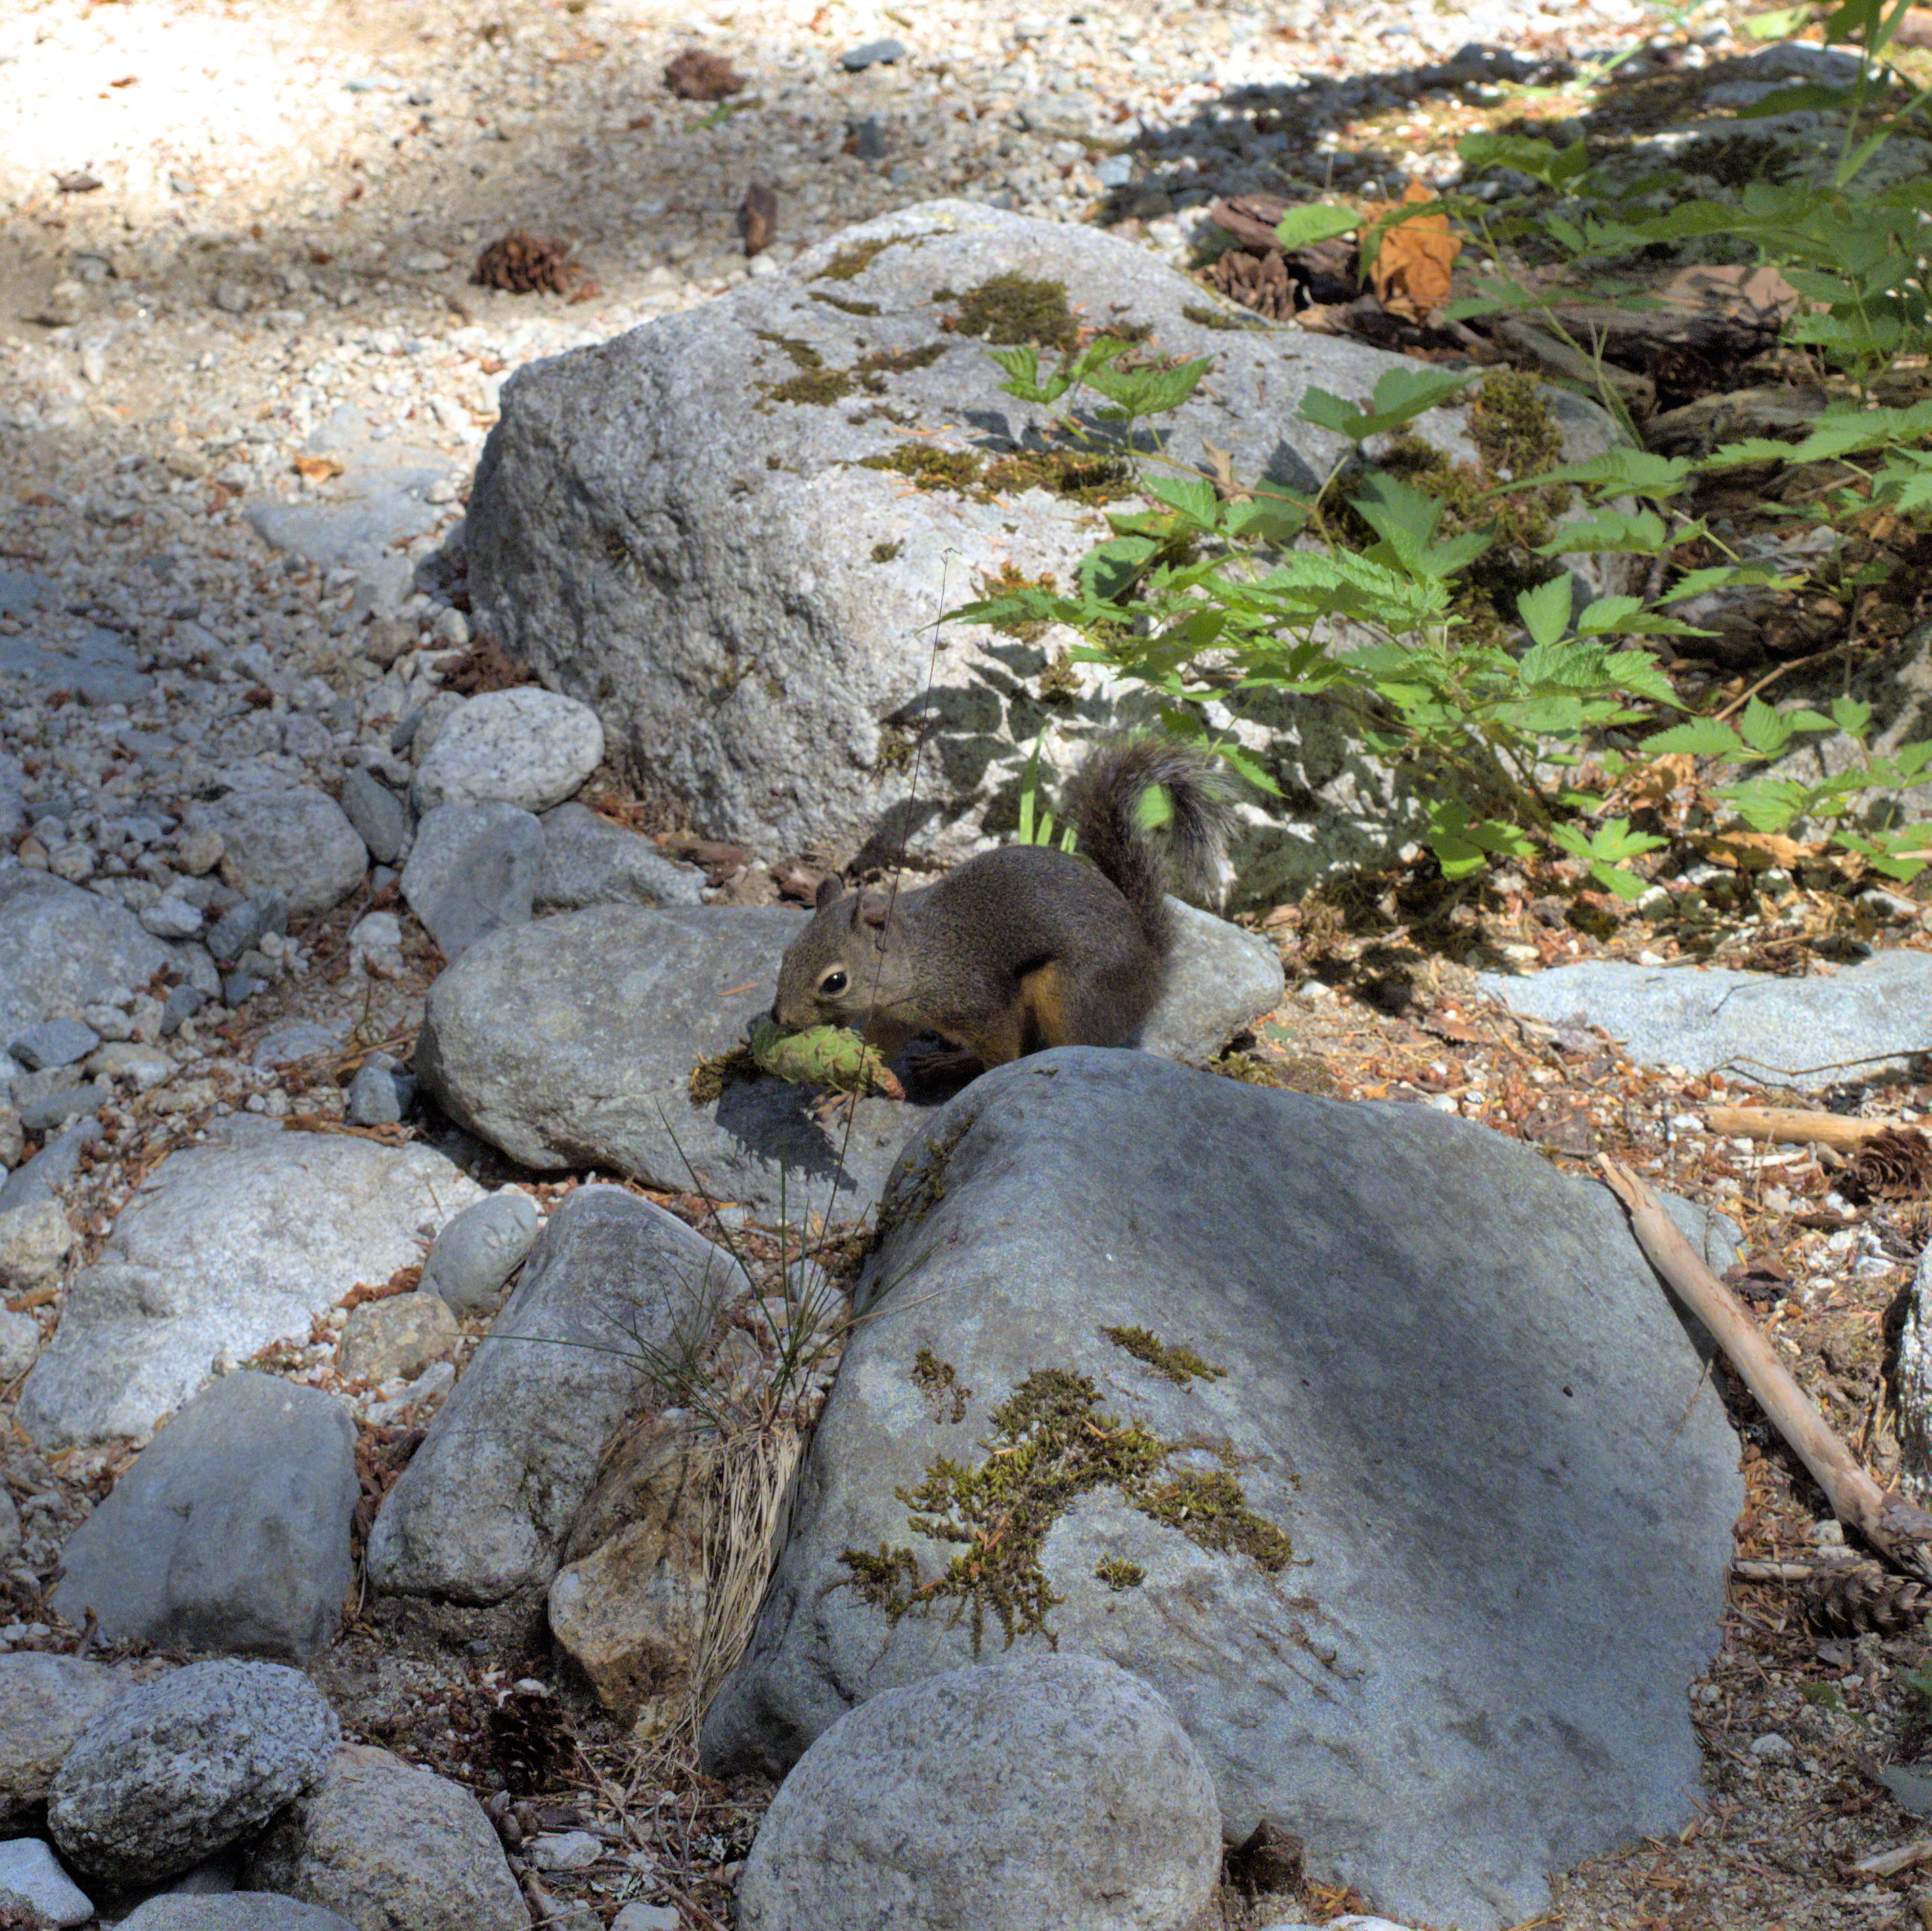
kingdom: Animalia
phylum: Chordata
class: Mammalia
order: Rodentia
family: Sciuridae
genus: Tamiasciurus
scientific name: Tamiasciurus douglasii
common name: Douglas's squirrel
